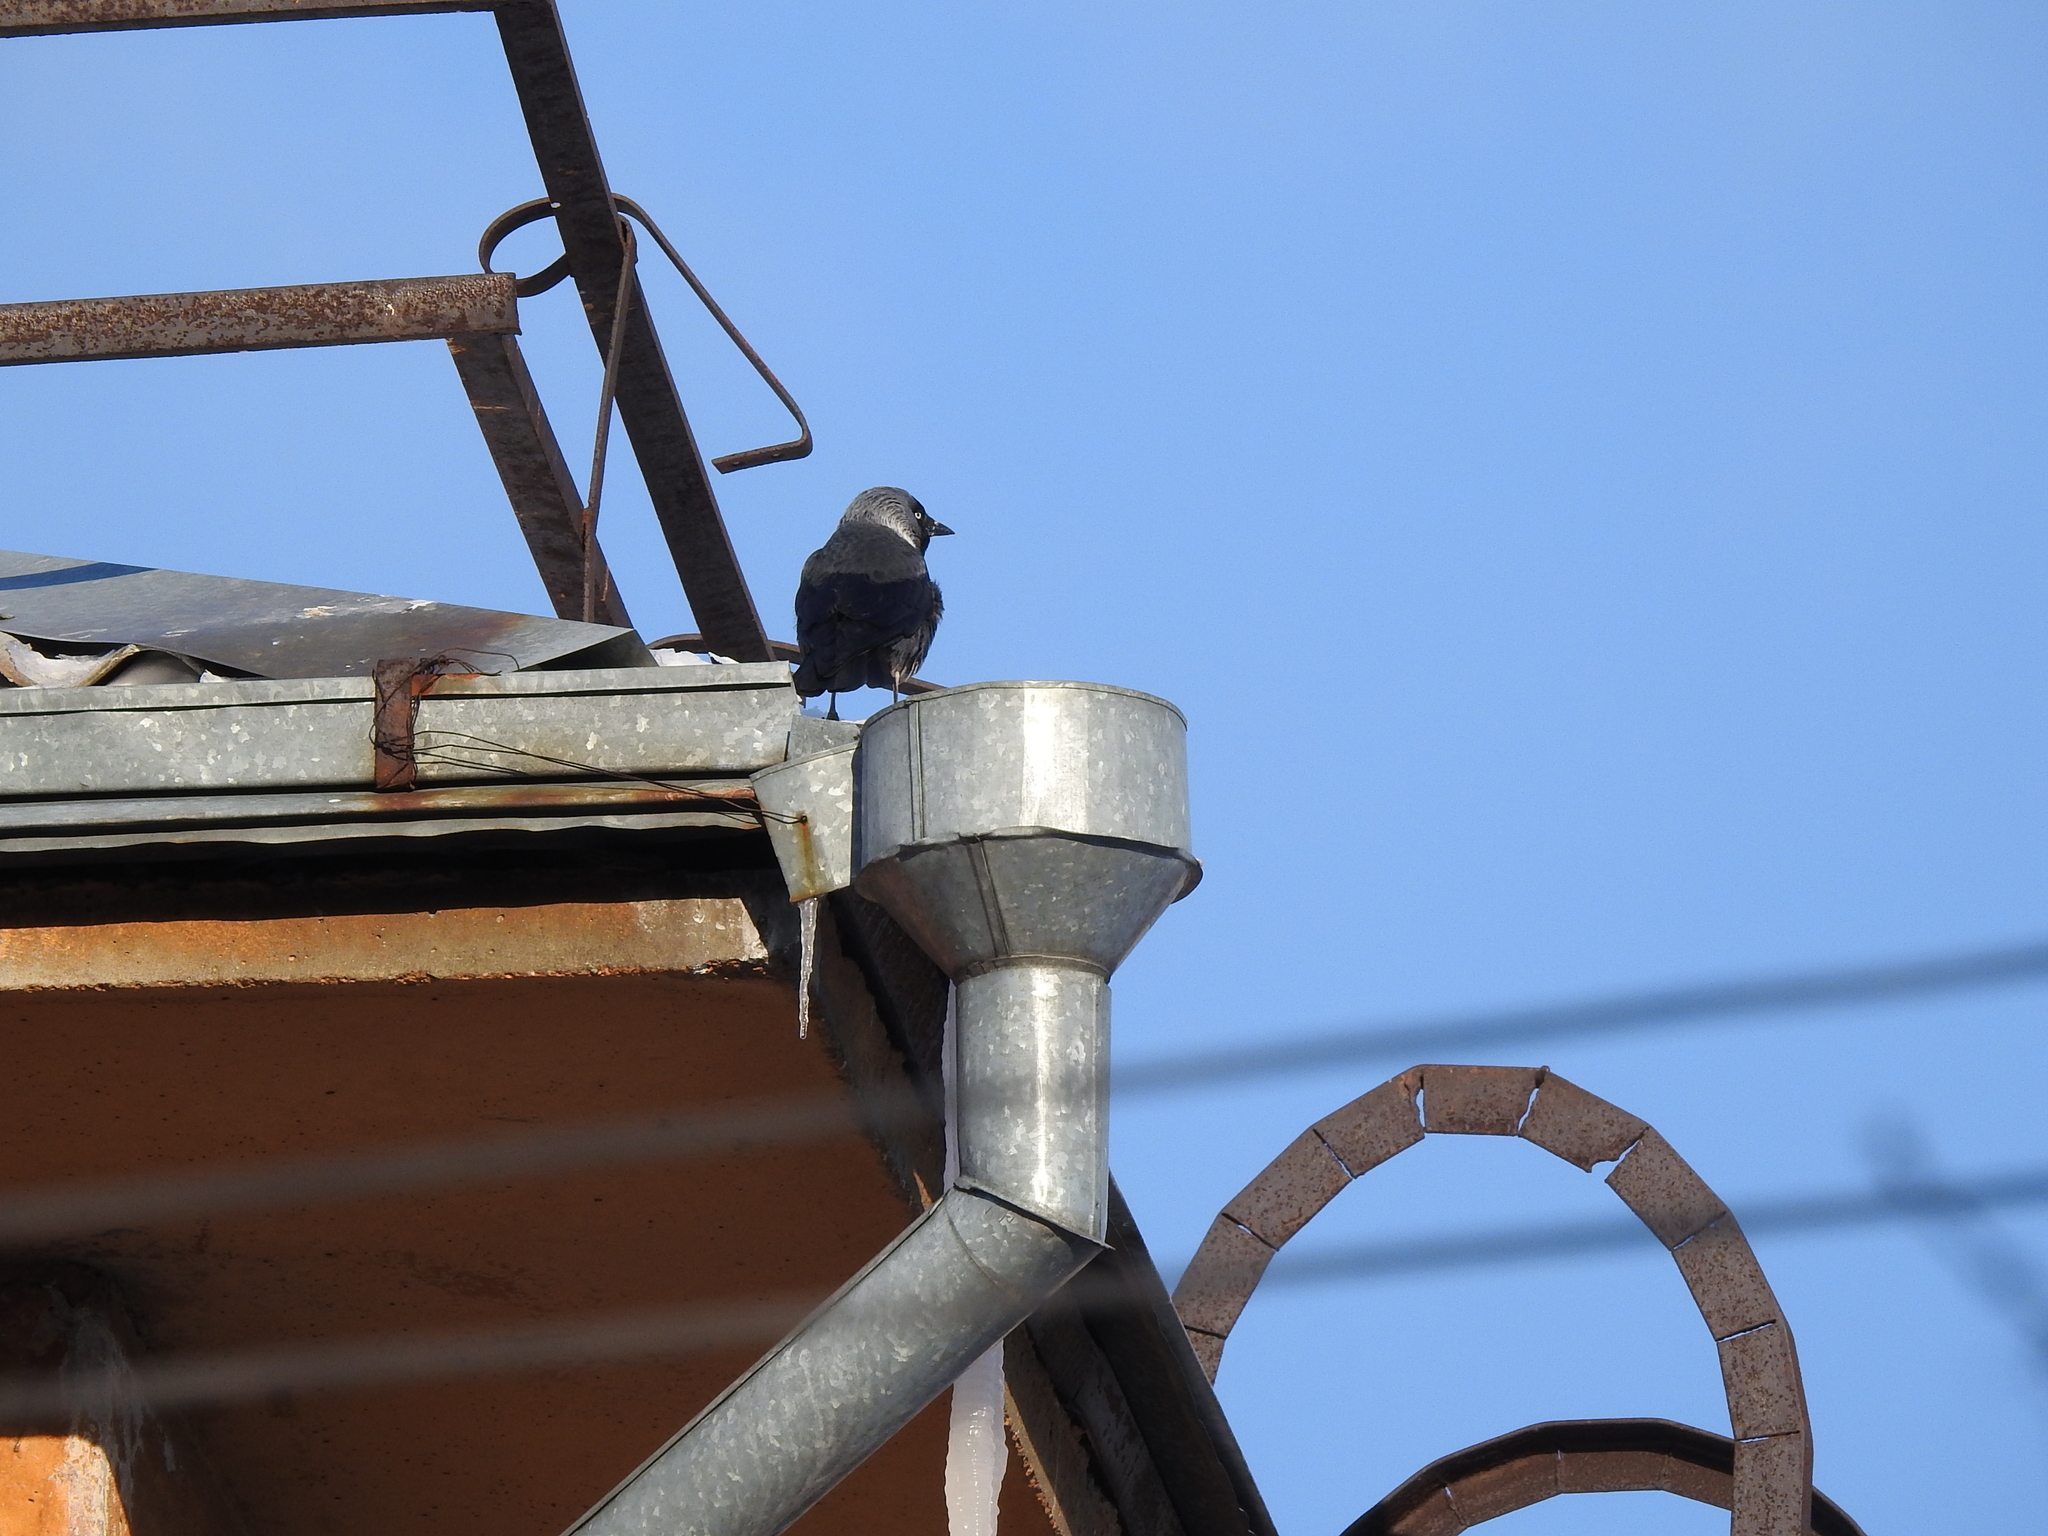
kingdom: Animalia
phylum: Chordata
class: Aves
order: Passeriformes
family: Corvidae
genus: Coloeus
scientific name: Coloeus monedula
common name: Western jackdaw
